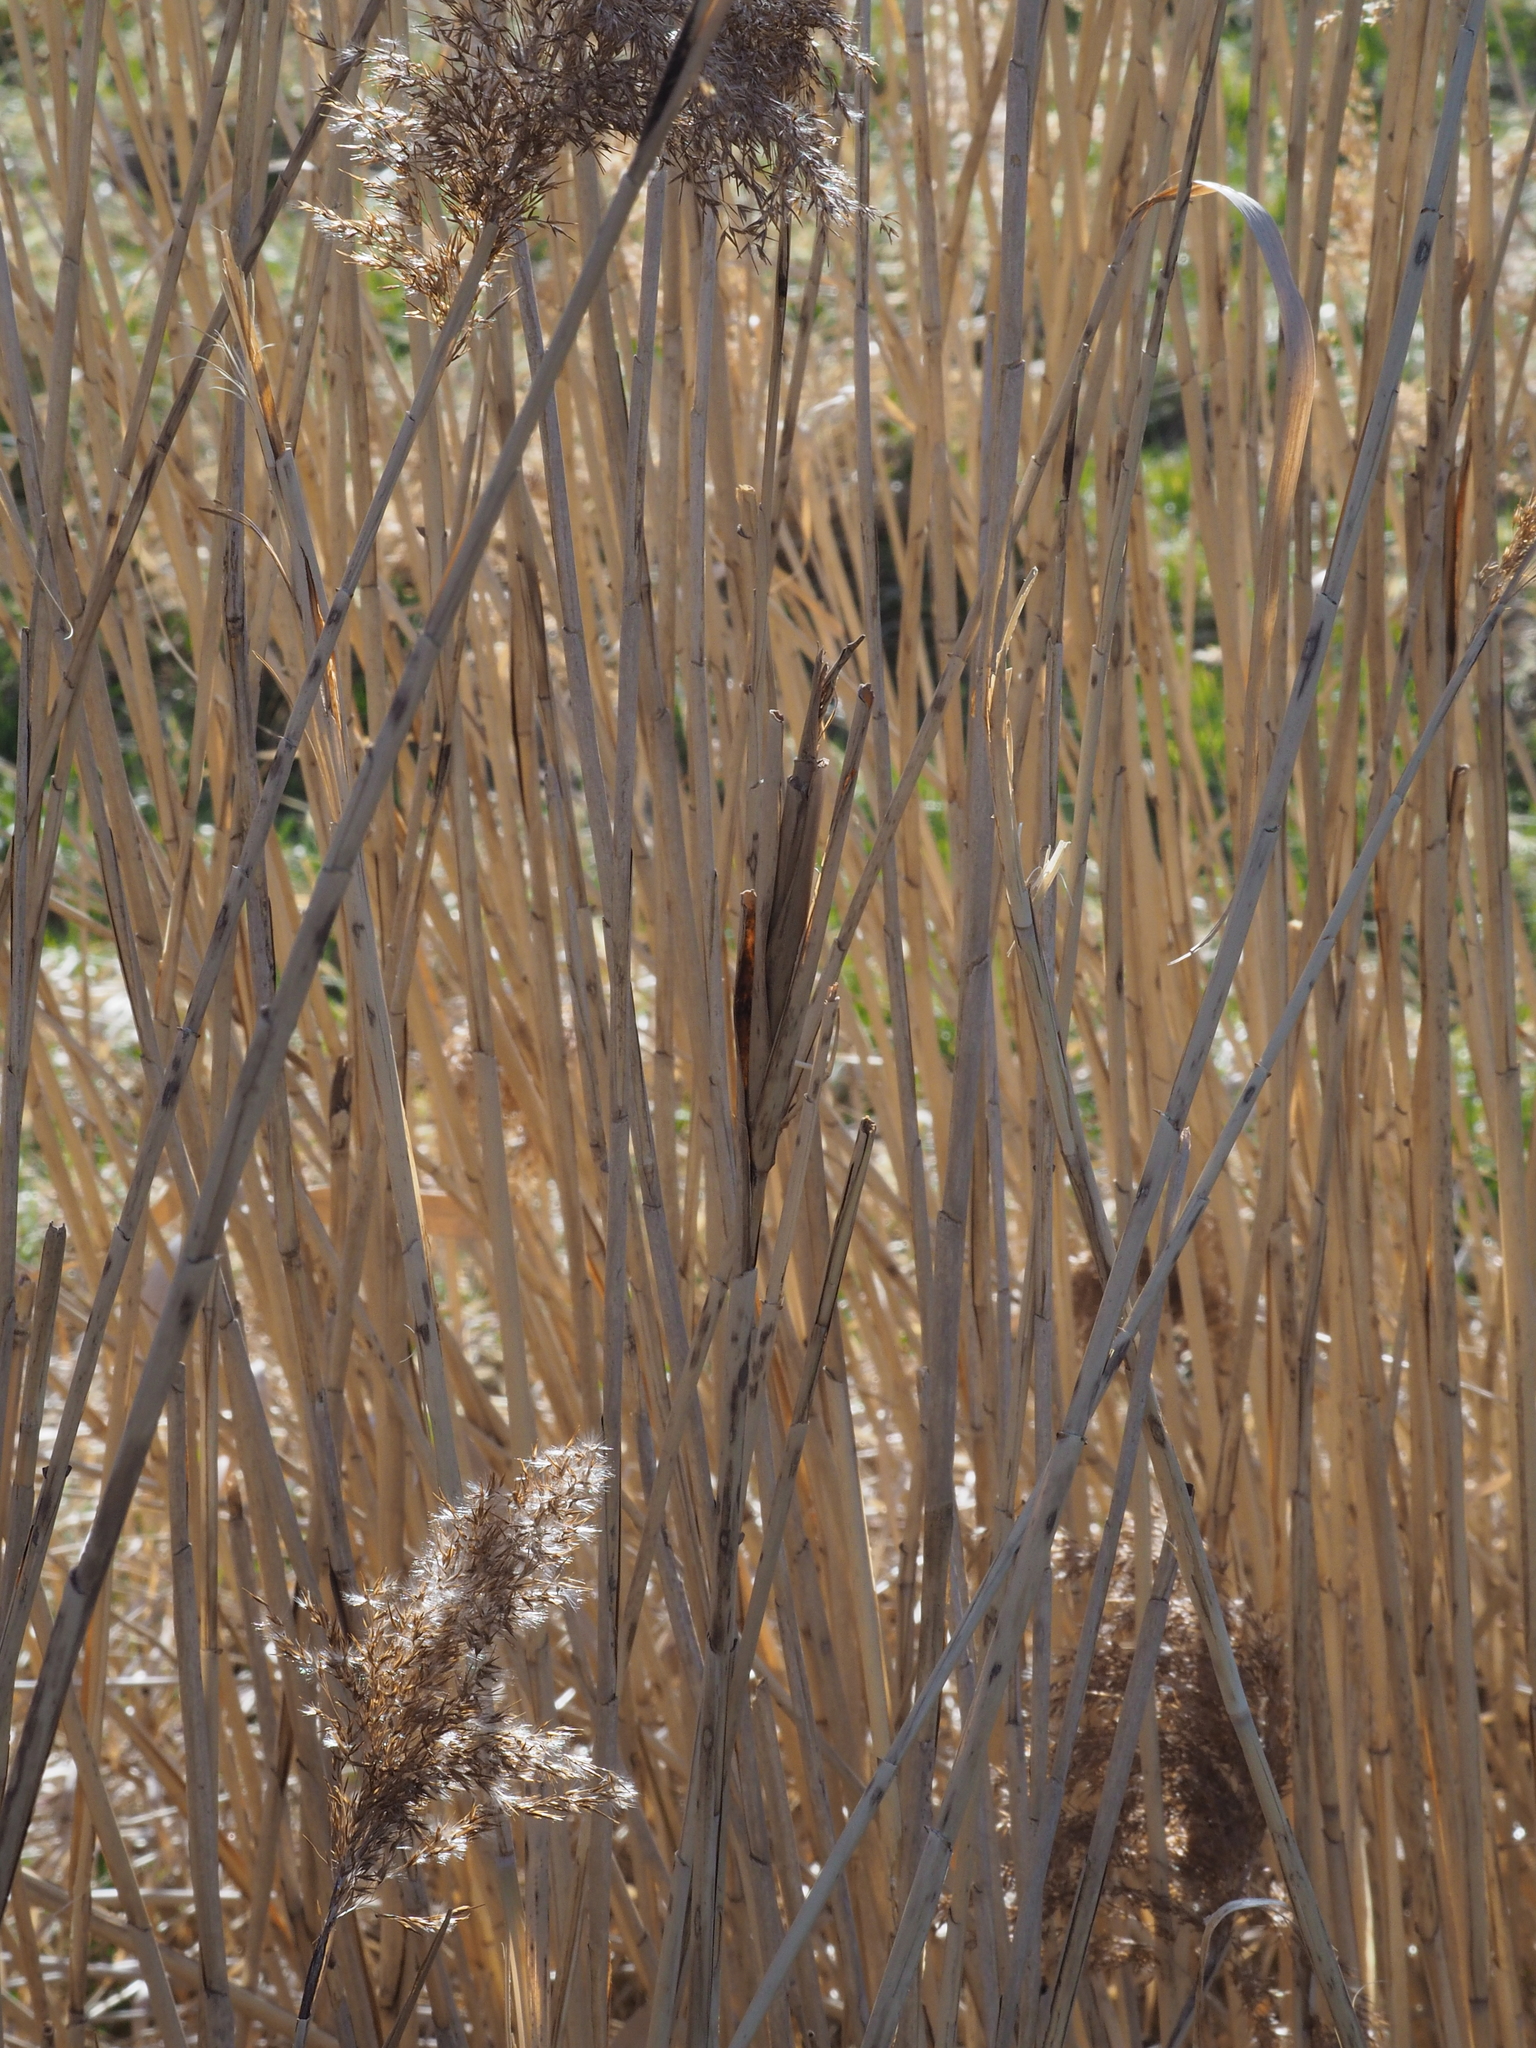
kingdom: Animalia
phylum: Arthropoda
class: Insecta
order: Diptera
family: Chloropidae
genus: Lipara
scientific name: Lipara lucens
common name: Frit fly
